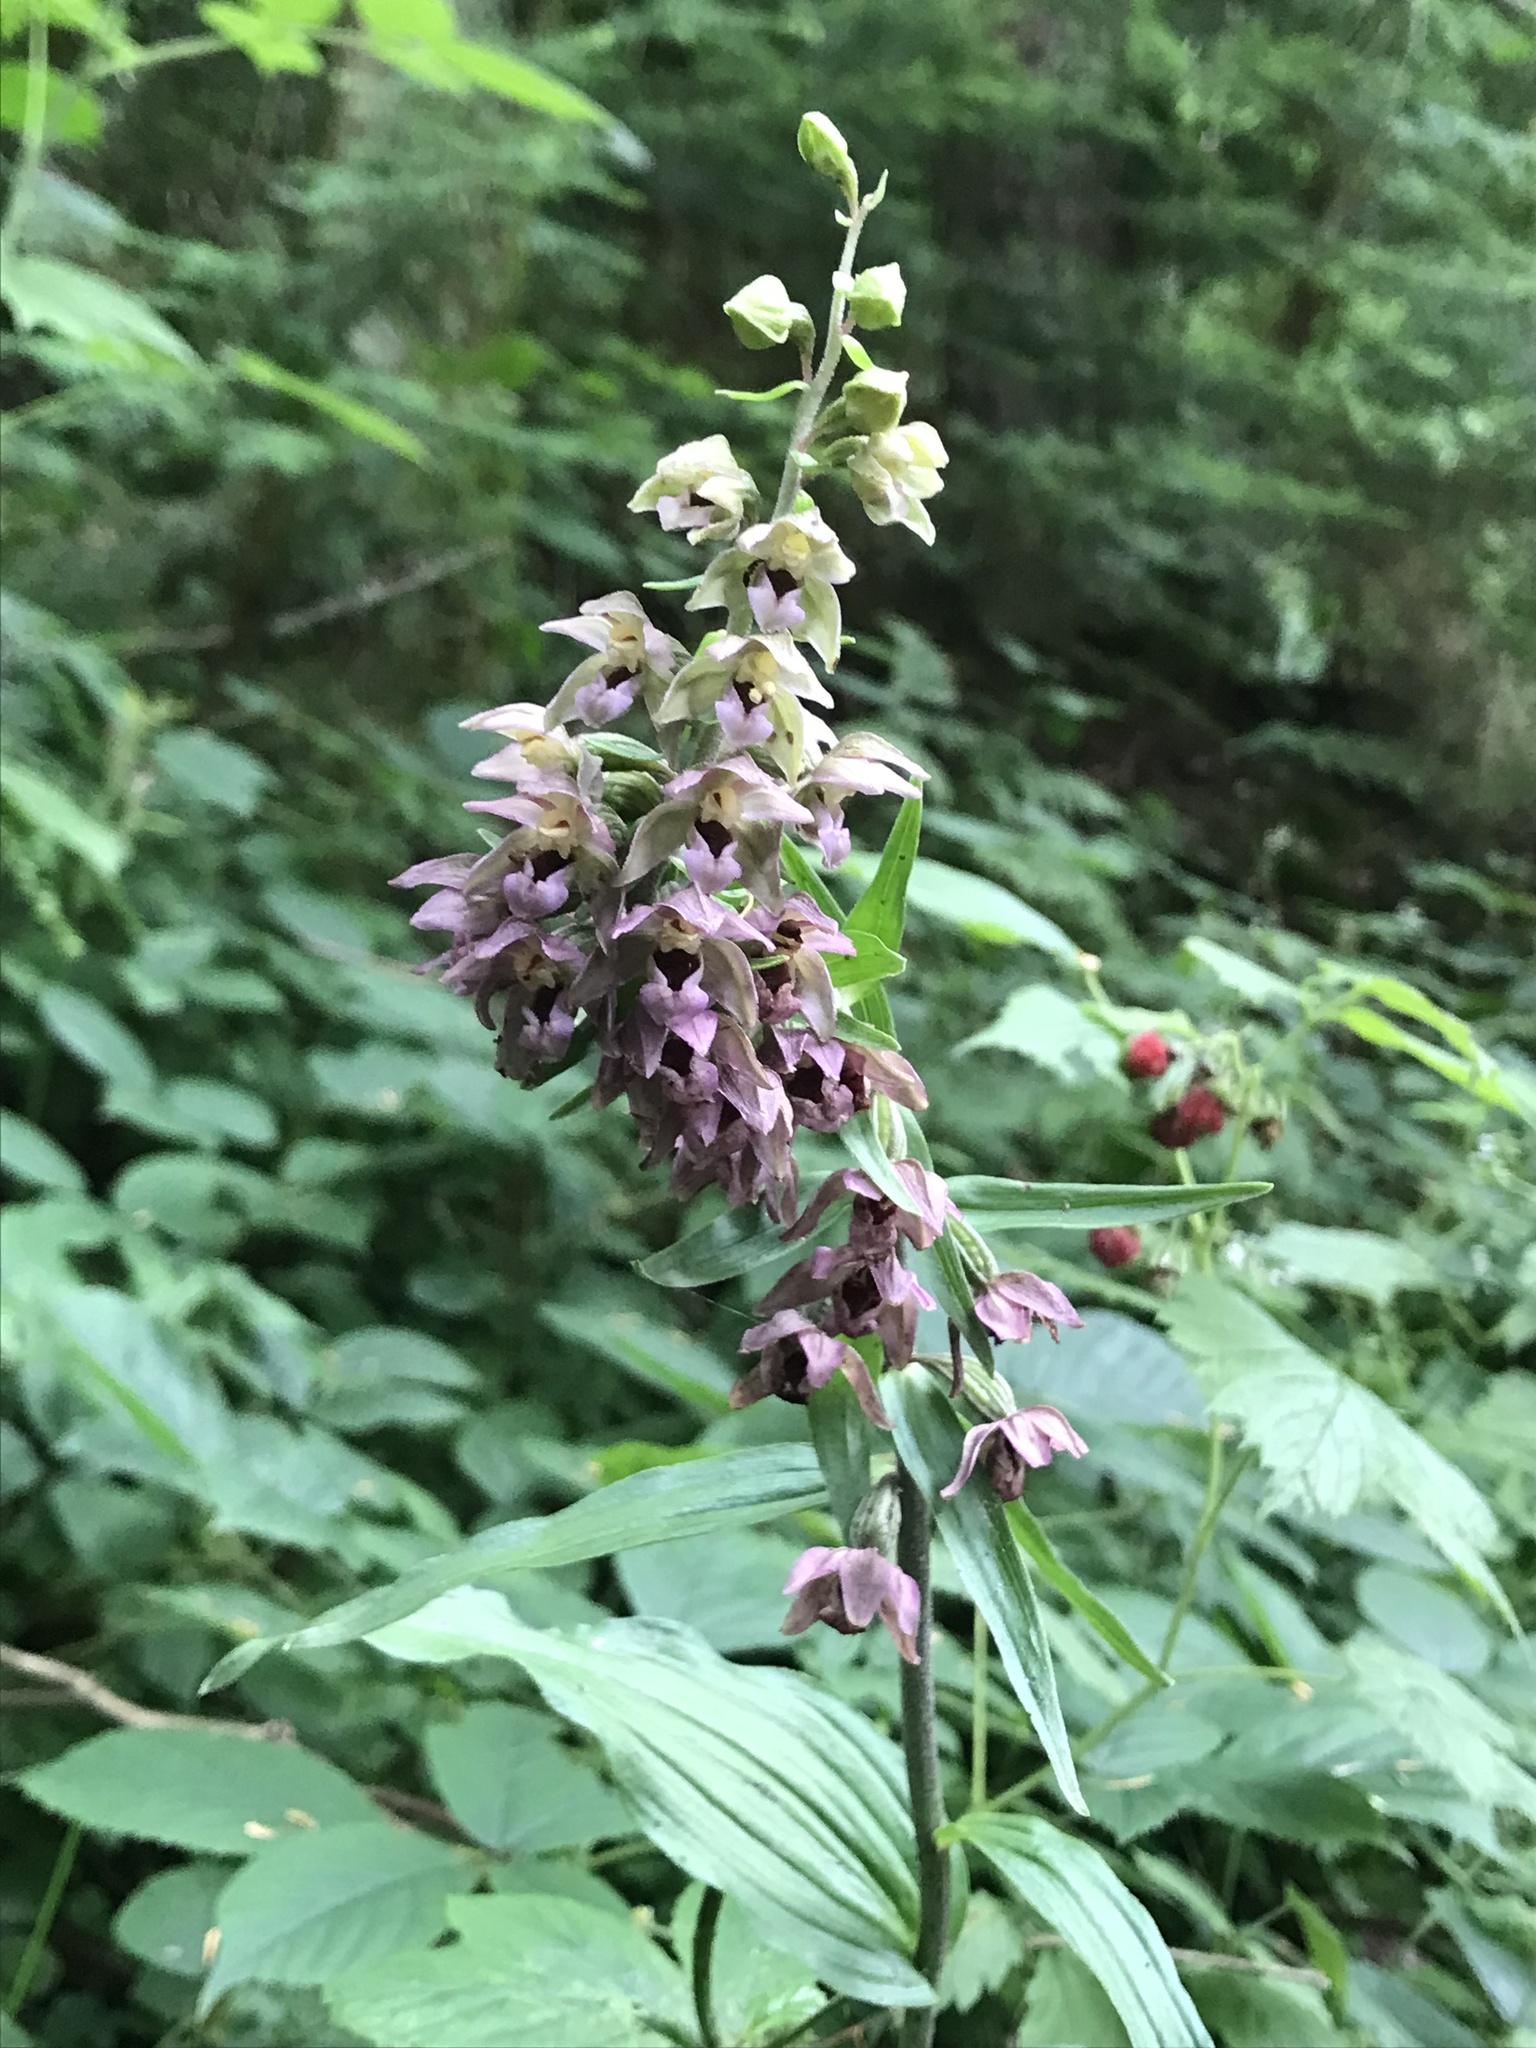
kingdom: Plantae
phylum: Tracheophyta
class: Liliopsida
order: Asparagales
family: Orchidaceae
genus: Epipactis
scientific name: Epipactis helleborine
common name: Broad-leaved helleborine
